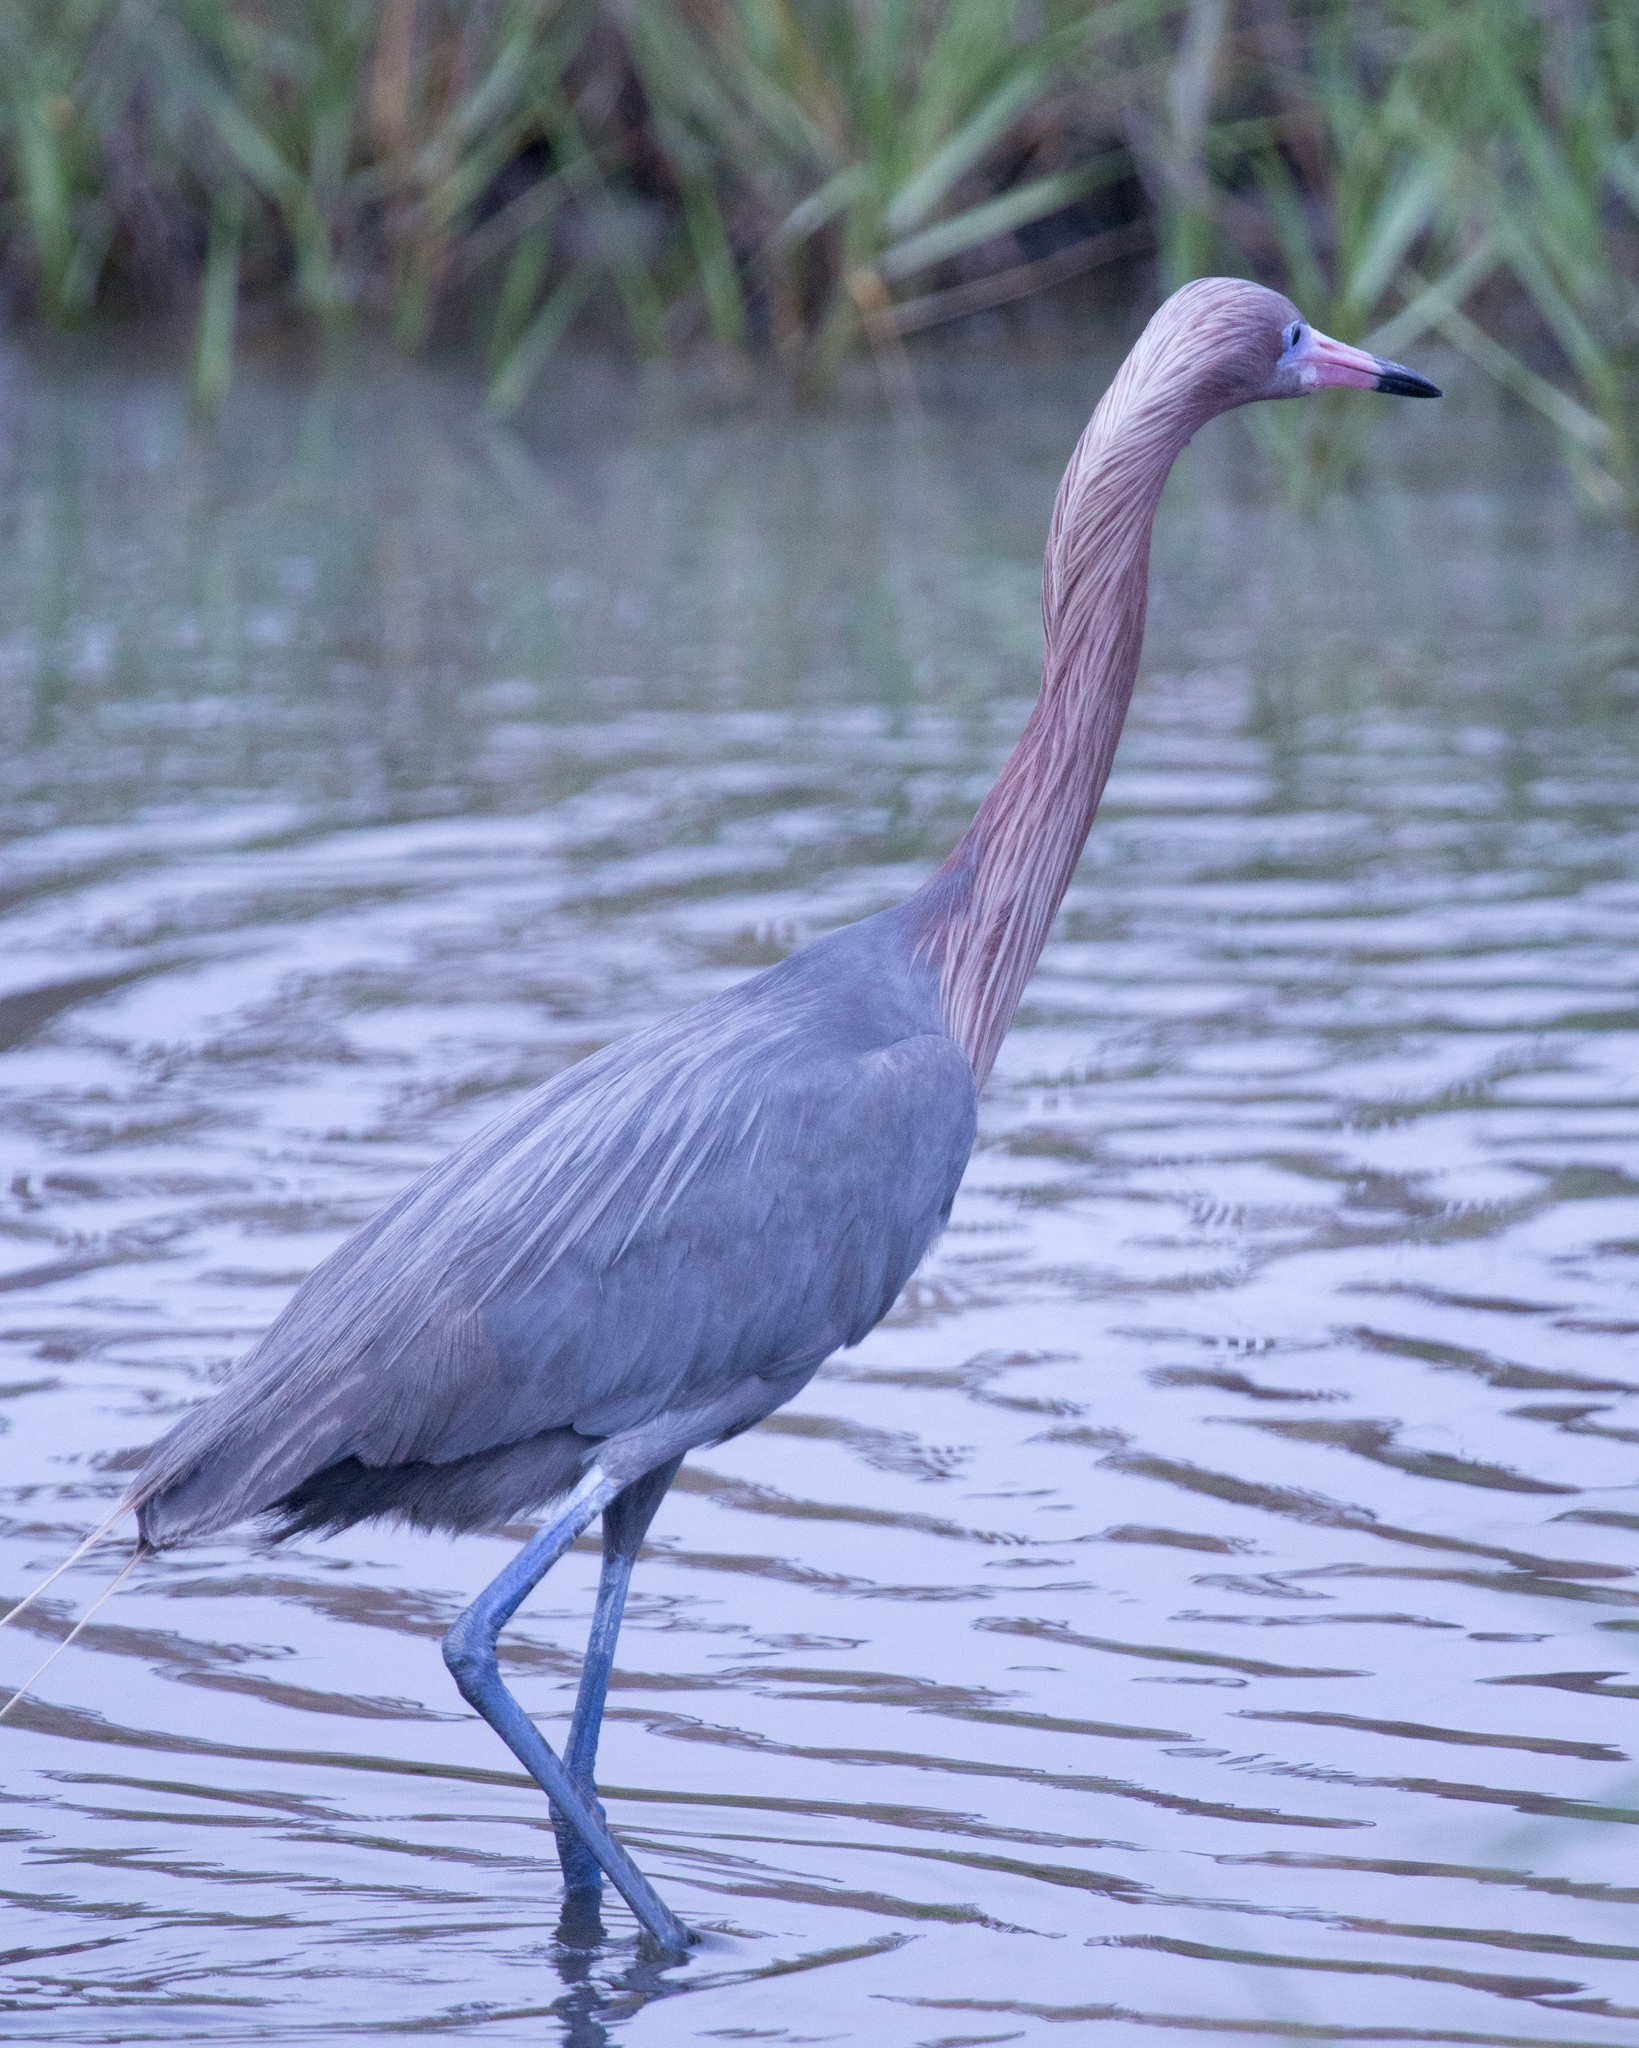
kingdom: Animalia
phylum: Chordata
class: Aves
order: Pelecaniformes
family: Ardeidae
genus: Egretta
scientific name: Egretta rufescens
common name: Reddish egret
